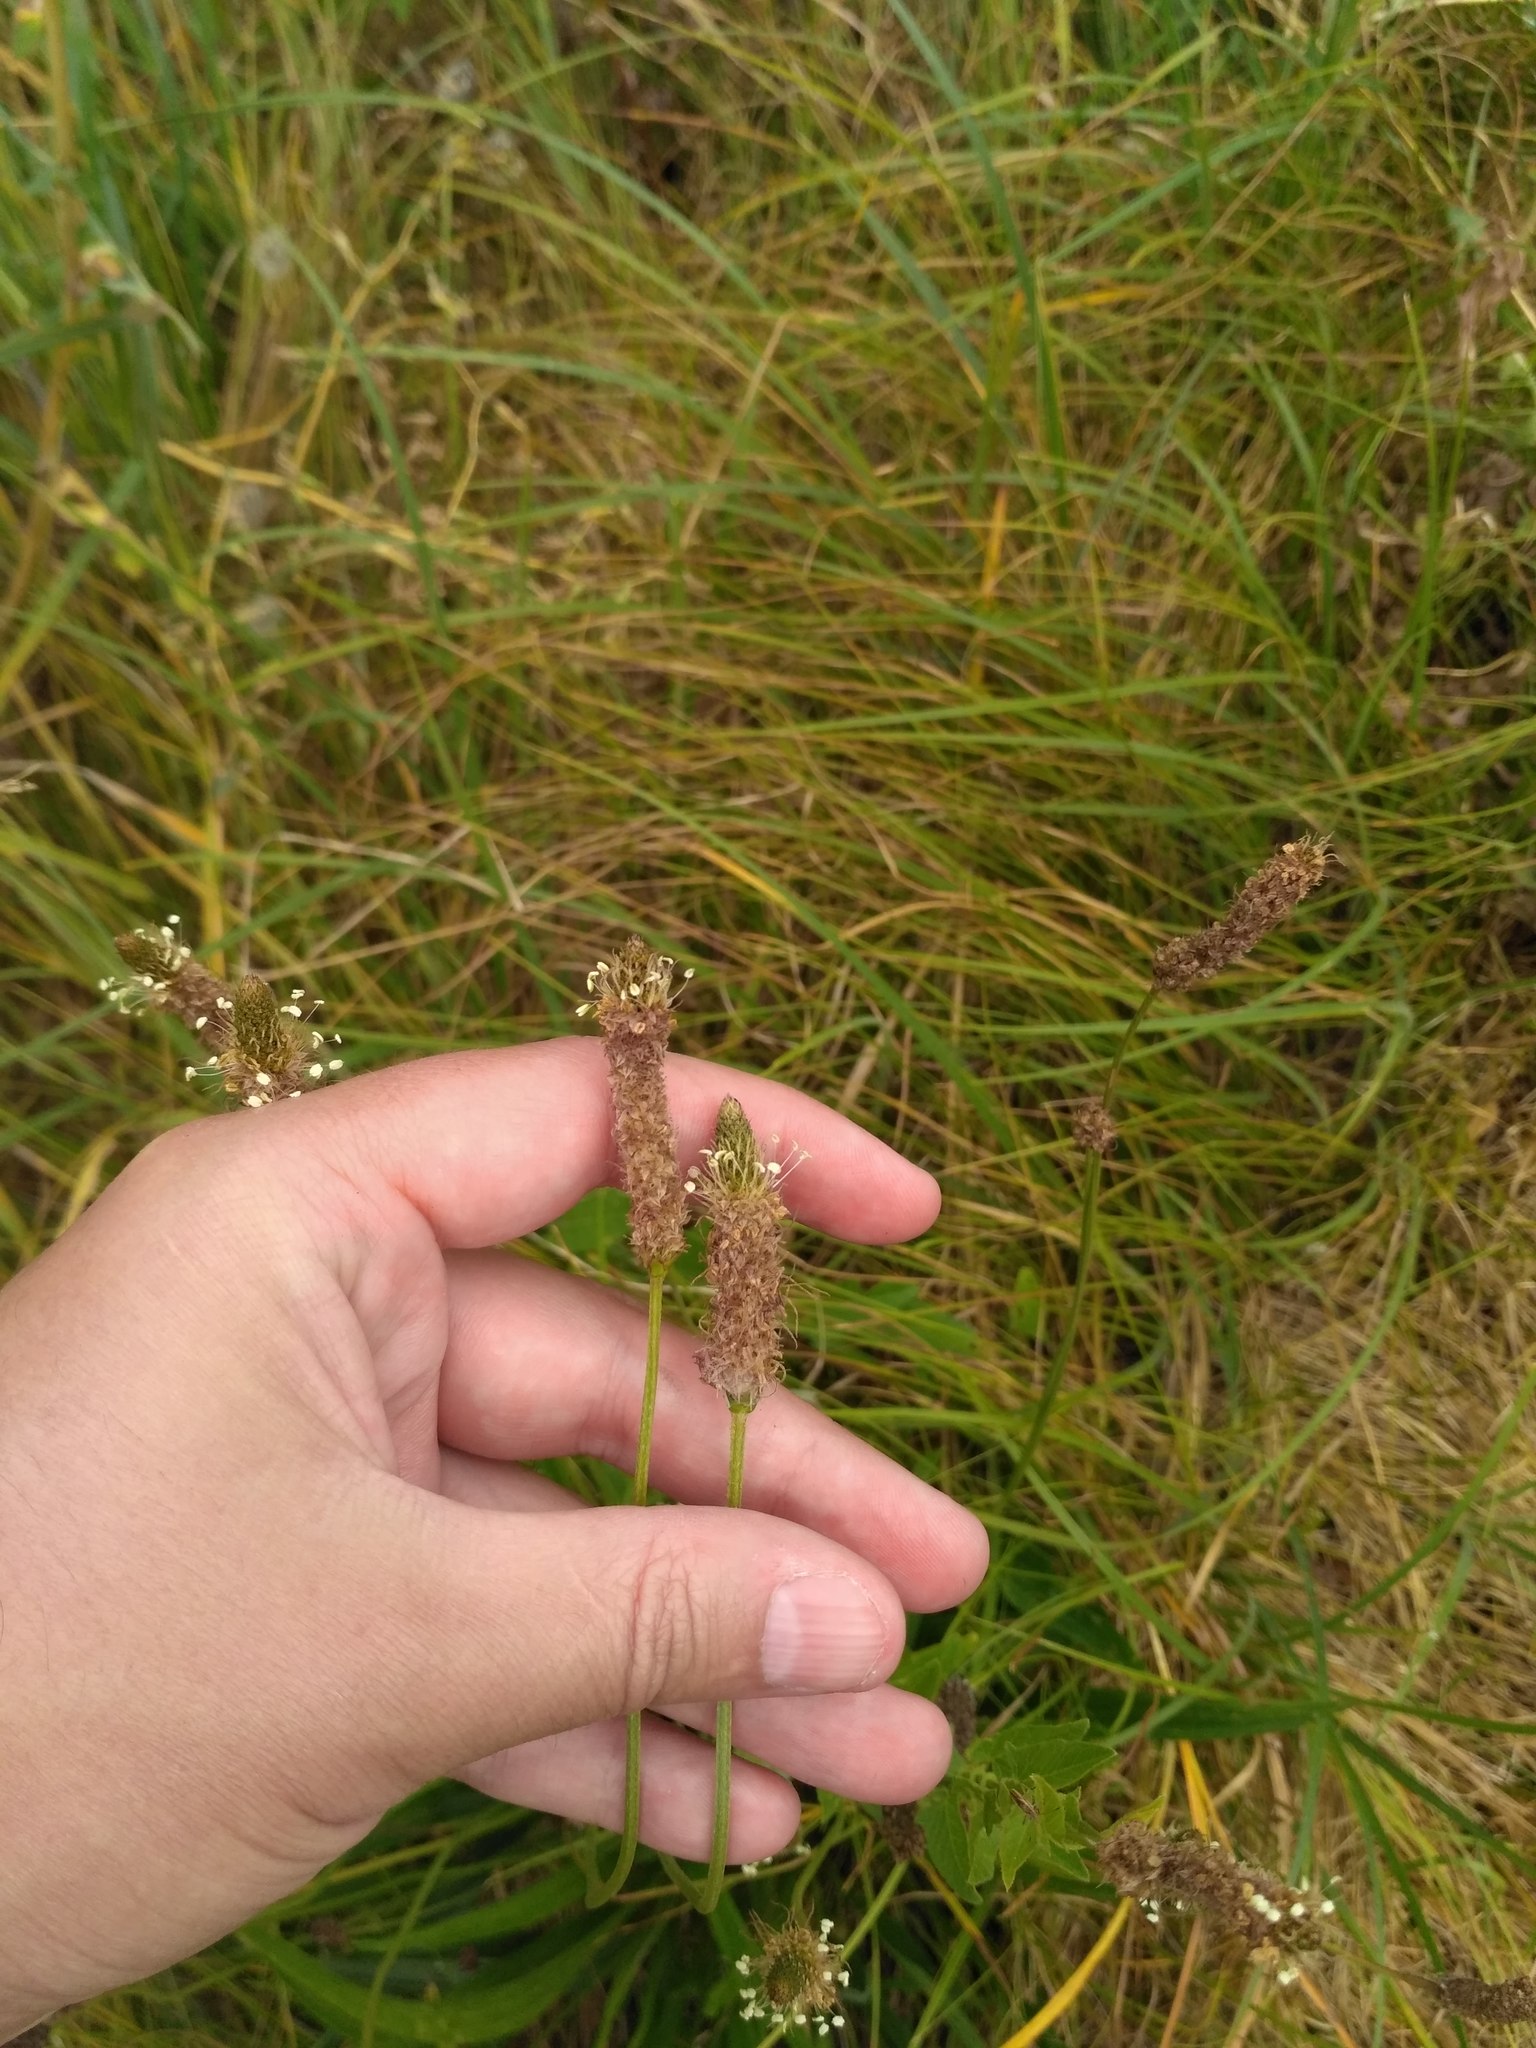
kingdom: Plantae
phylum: Tracheophyta
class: Magnoliopsida
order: Lamiales
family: Plantaginaceae
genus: Plantago
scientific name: Plantago lanceolata
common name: Ribwort plantain
